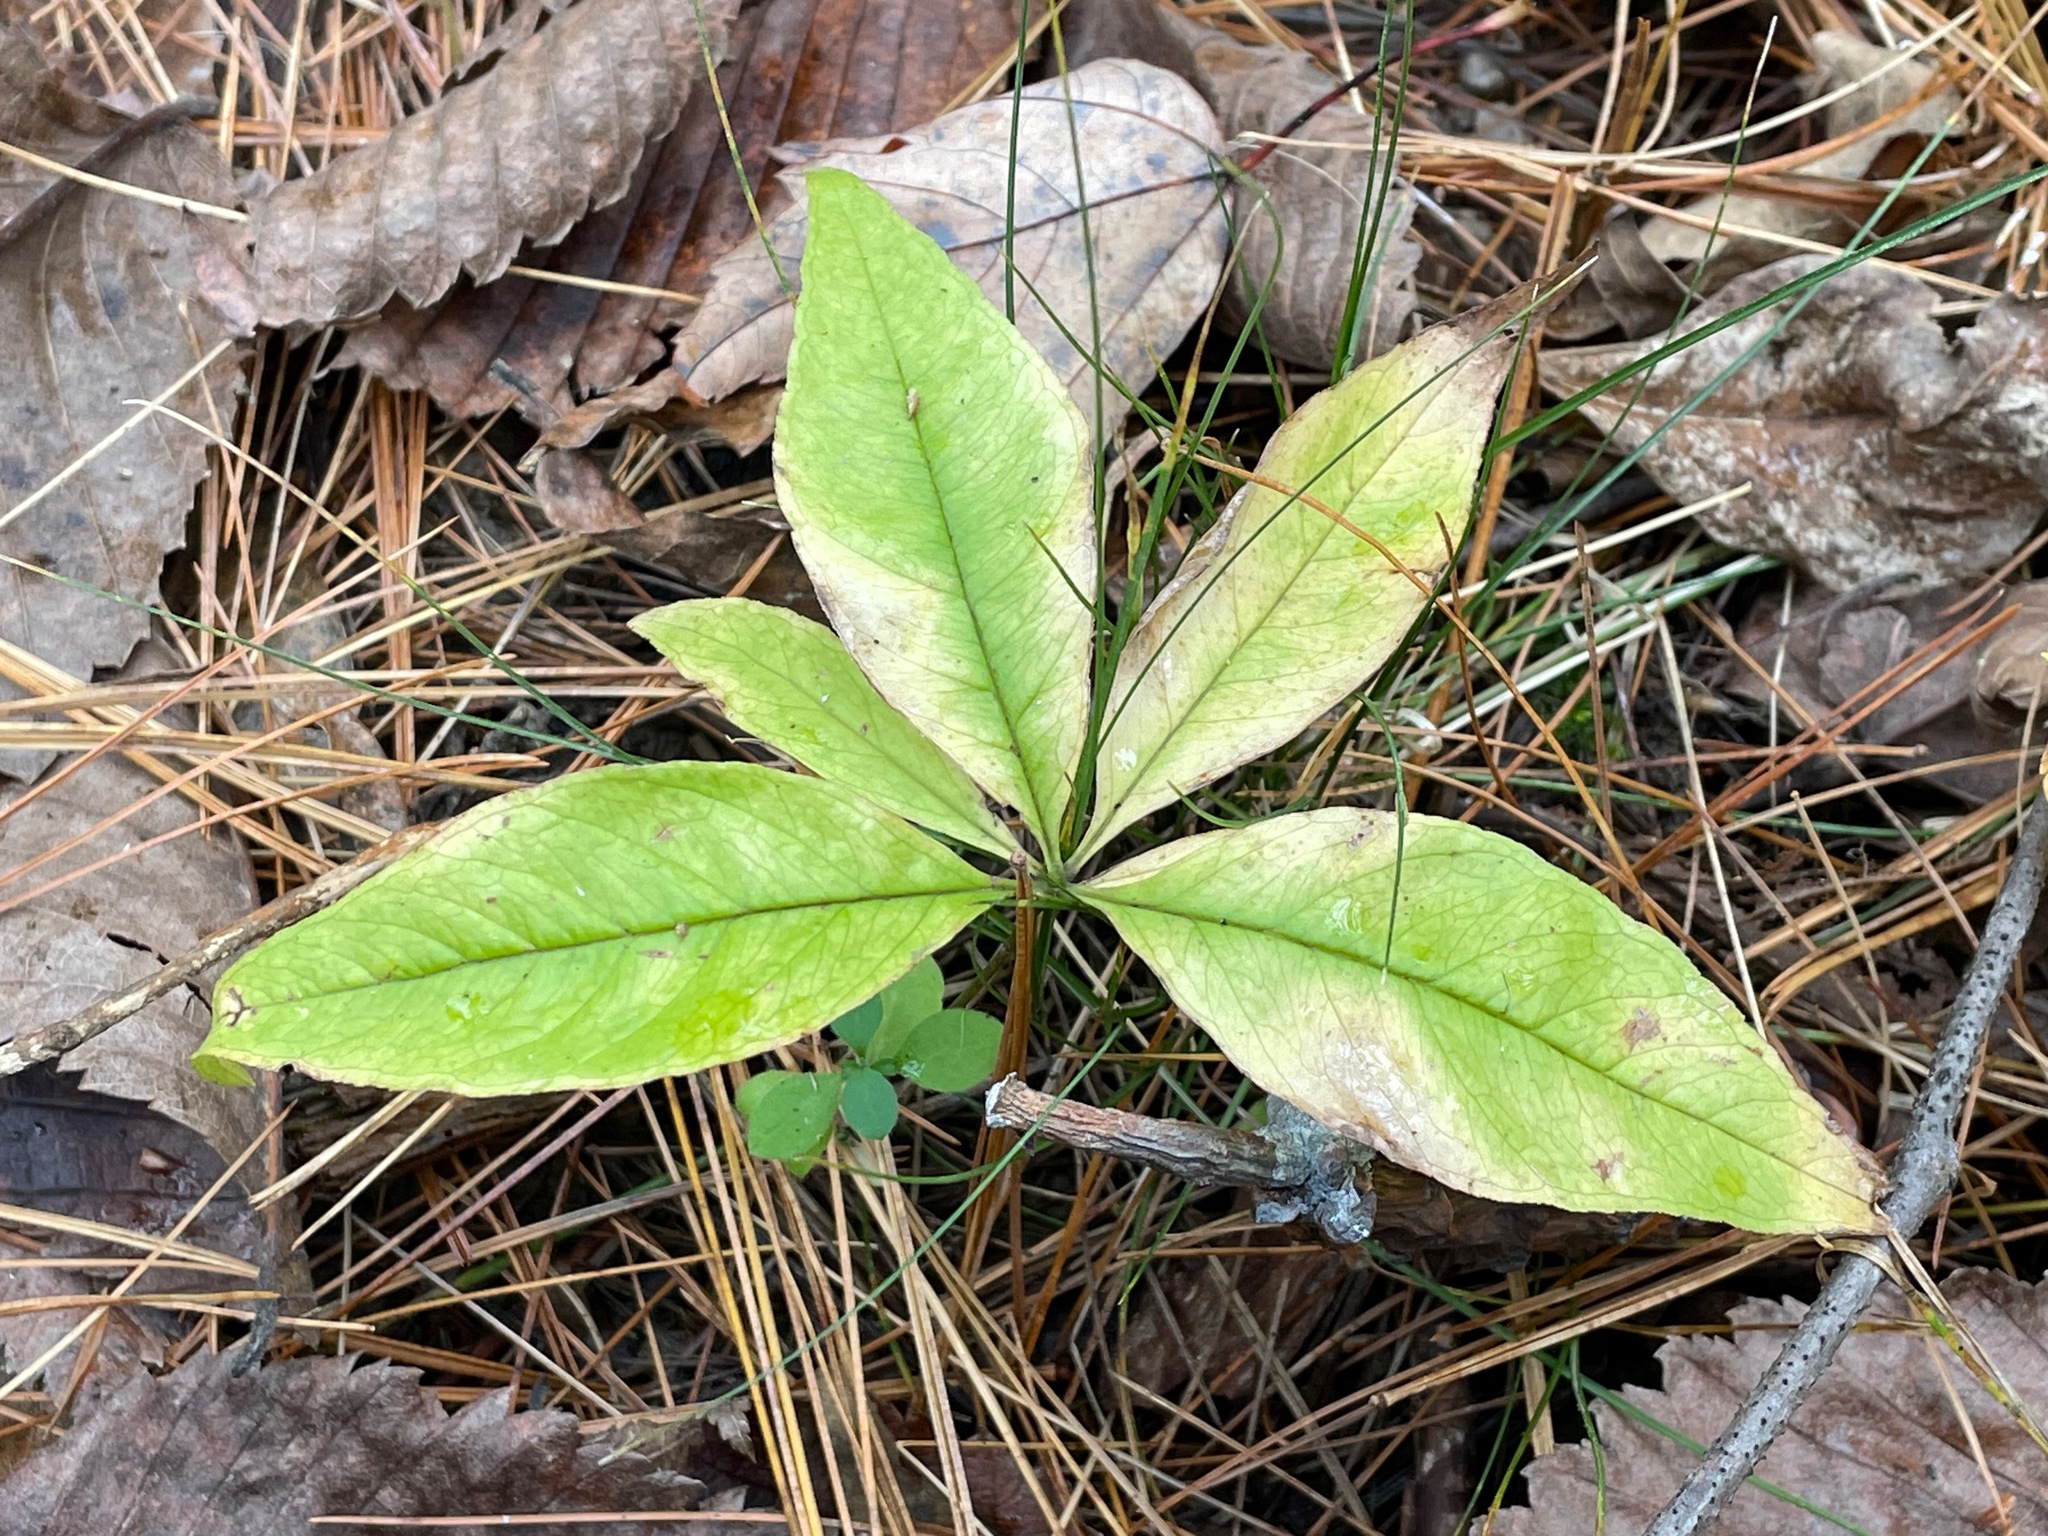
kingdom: Plantae
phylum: Tracheophyta
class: Magnoliopsida
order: Ericales
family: Primulaceae
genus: Lysimachia
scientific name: Lysimachia borealis
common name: American starflower
